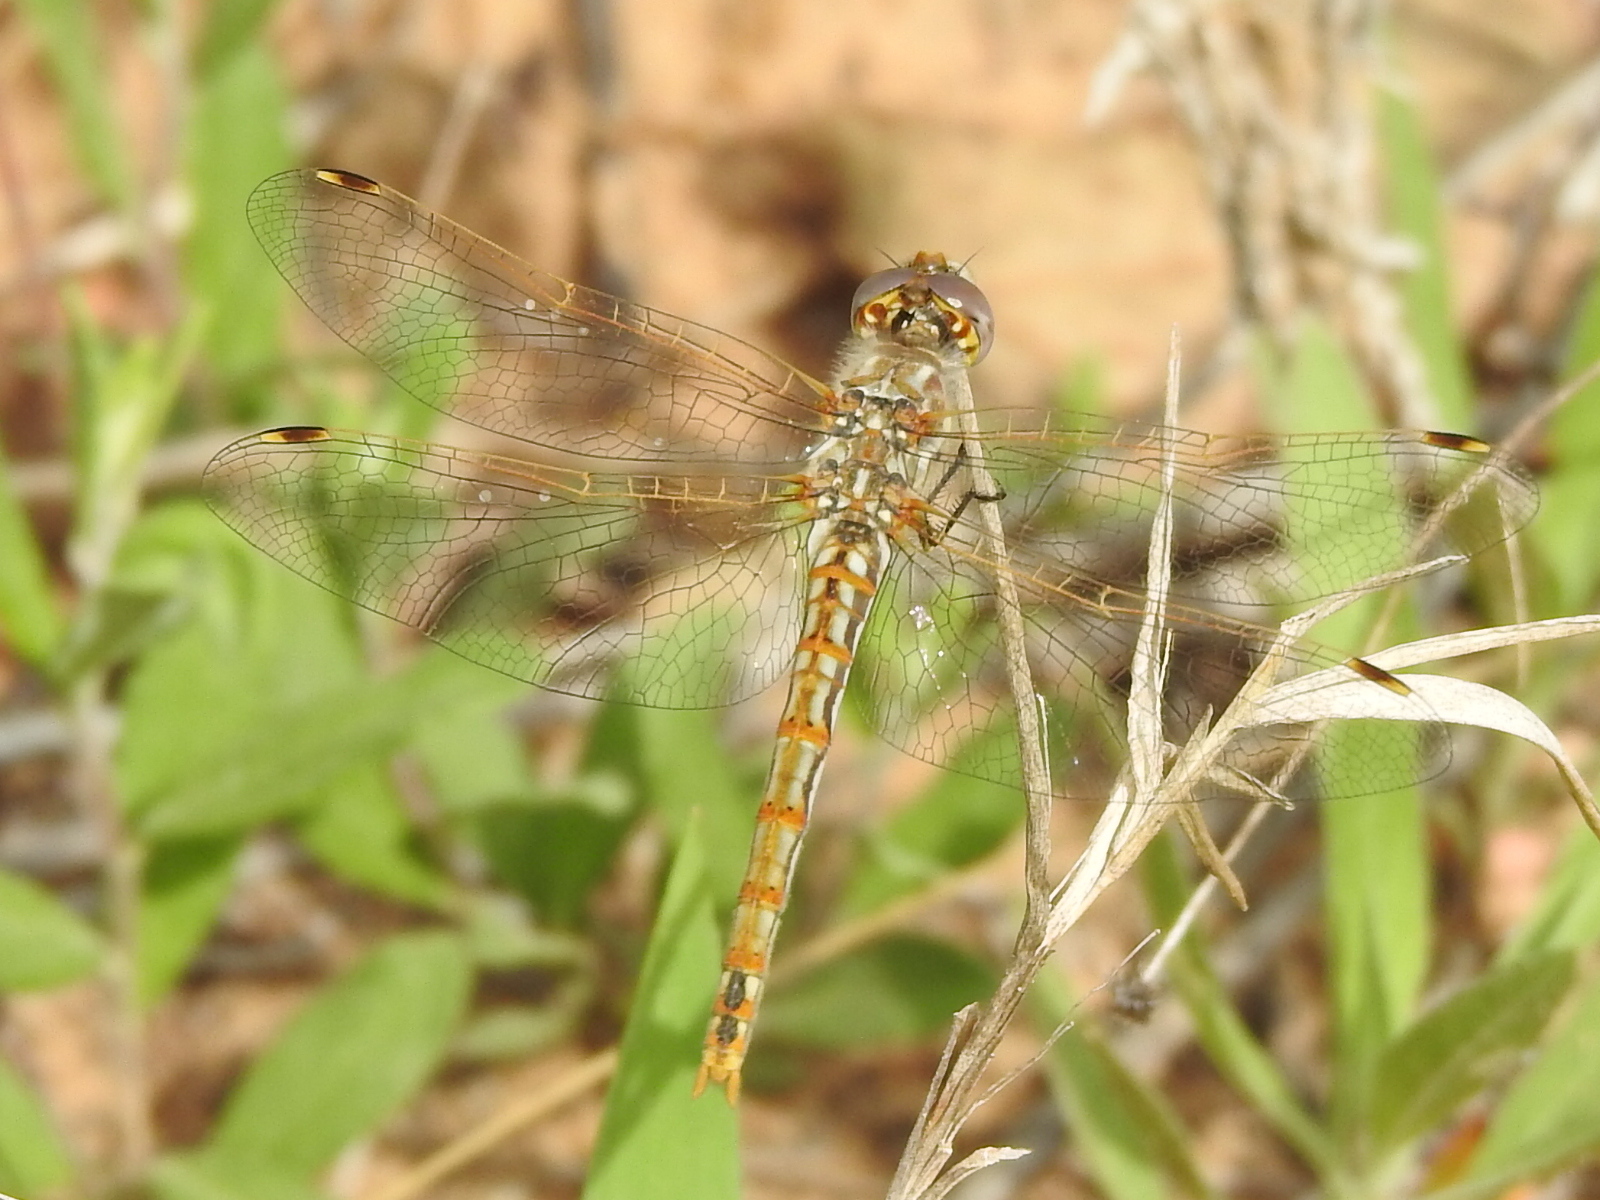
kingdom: Animalia
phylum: Arthropoda
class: Insecta
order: Odonata
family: Libellulidae
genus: Sympetrum
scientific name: Sympetrum corruptum
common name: Variegated meadowhawk
